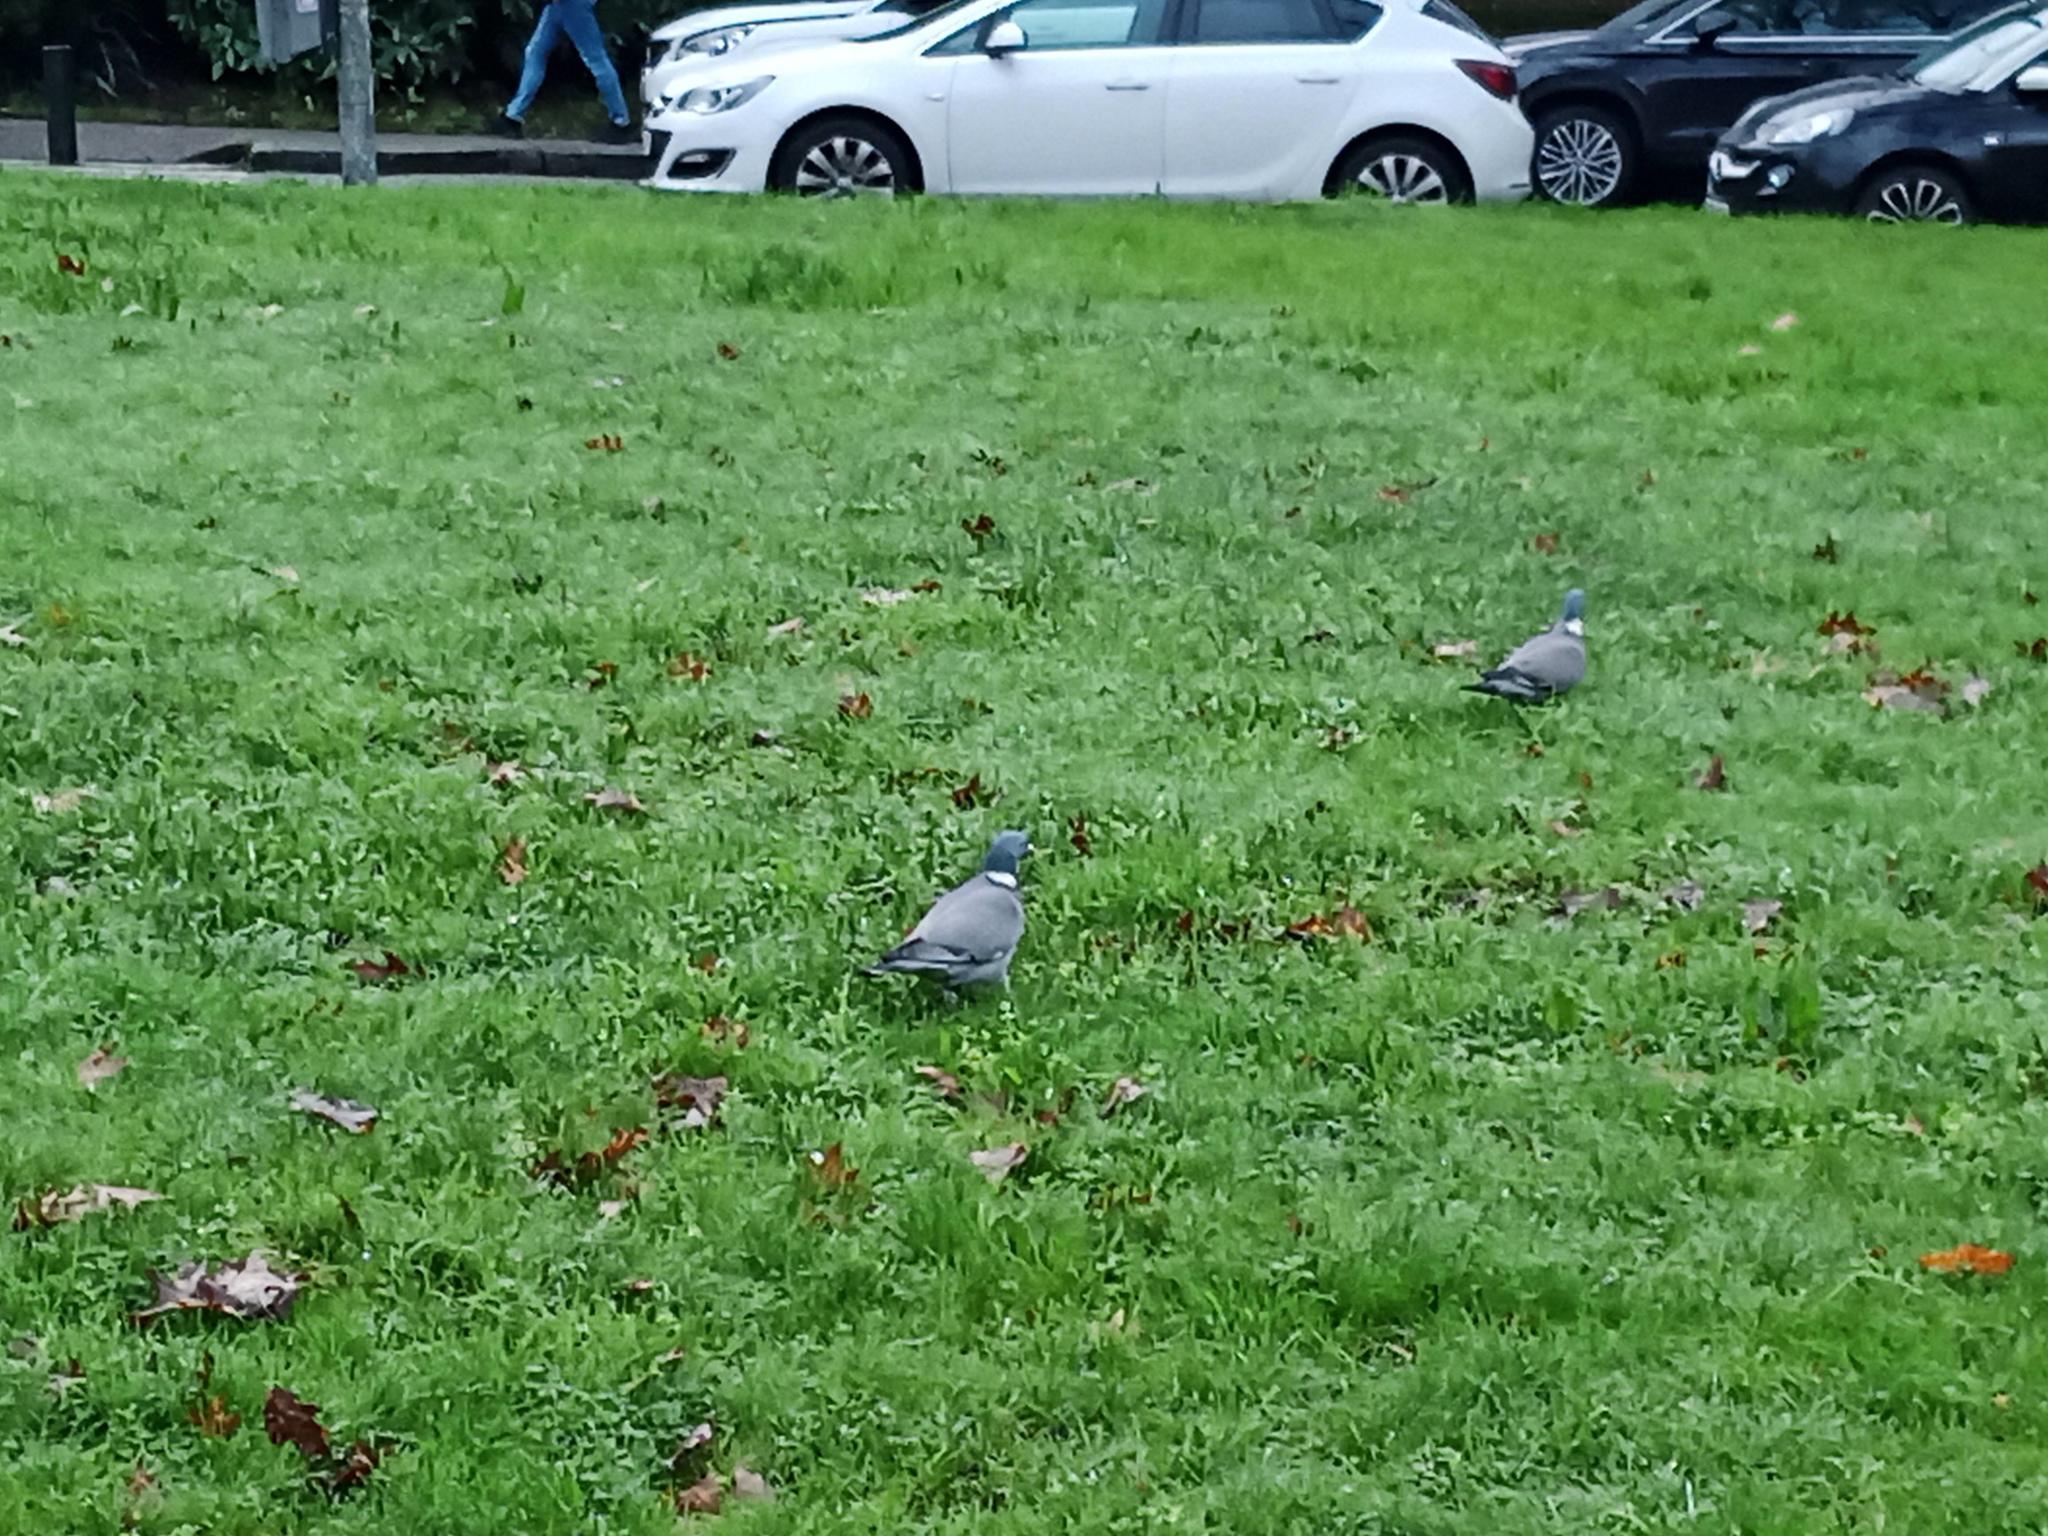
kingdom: Animalia
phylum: Chordata
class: Aves
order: Columbiformes
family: Columbidae
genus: Columba
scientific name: Columba palumbus
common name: Common wood pigeon
